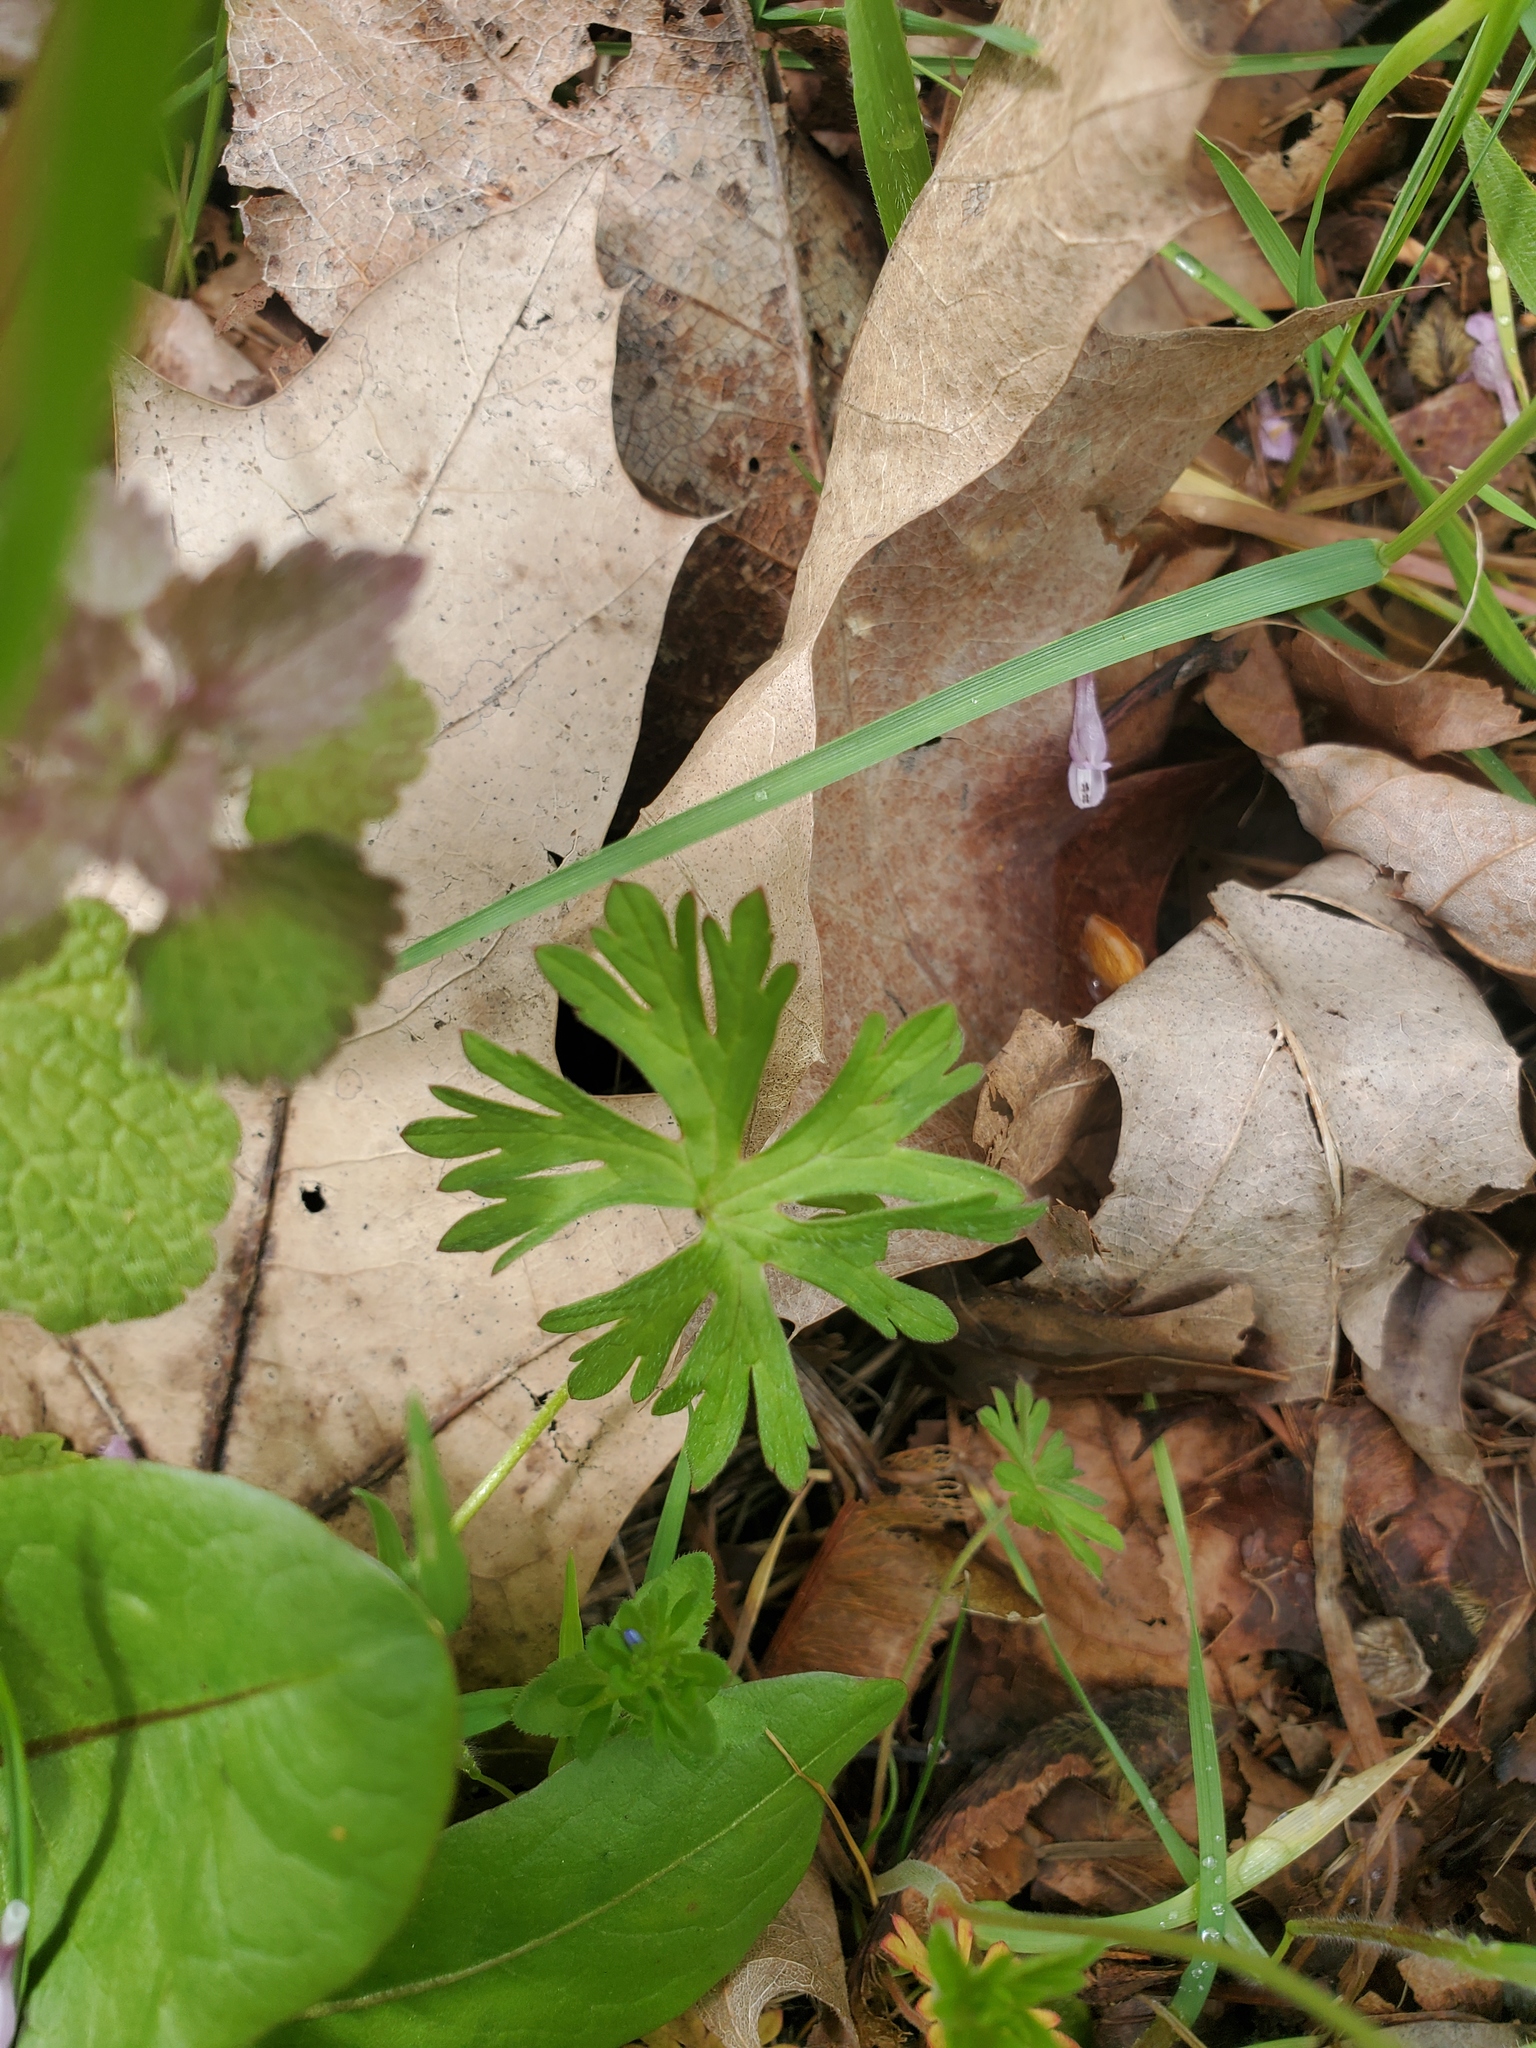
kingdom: Plantae
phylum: Tracheophyta
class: Magnoliopsida
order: Geraniales
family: Geraniaceae
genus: Geranium
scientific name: Geranium dissectum
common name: Cut-leaved crane's-bill
